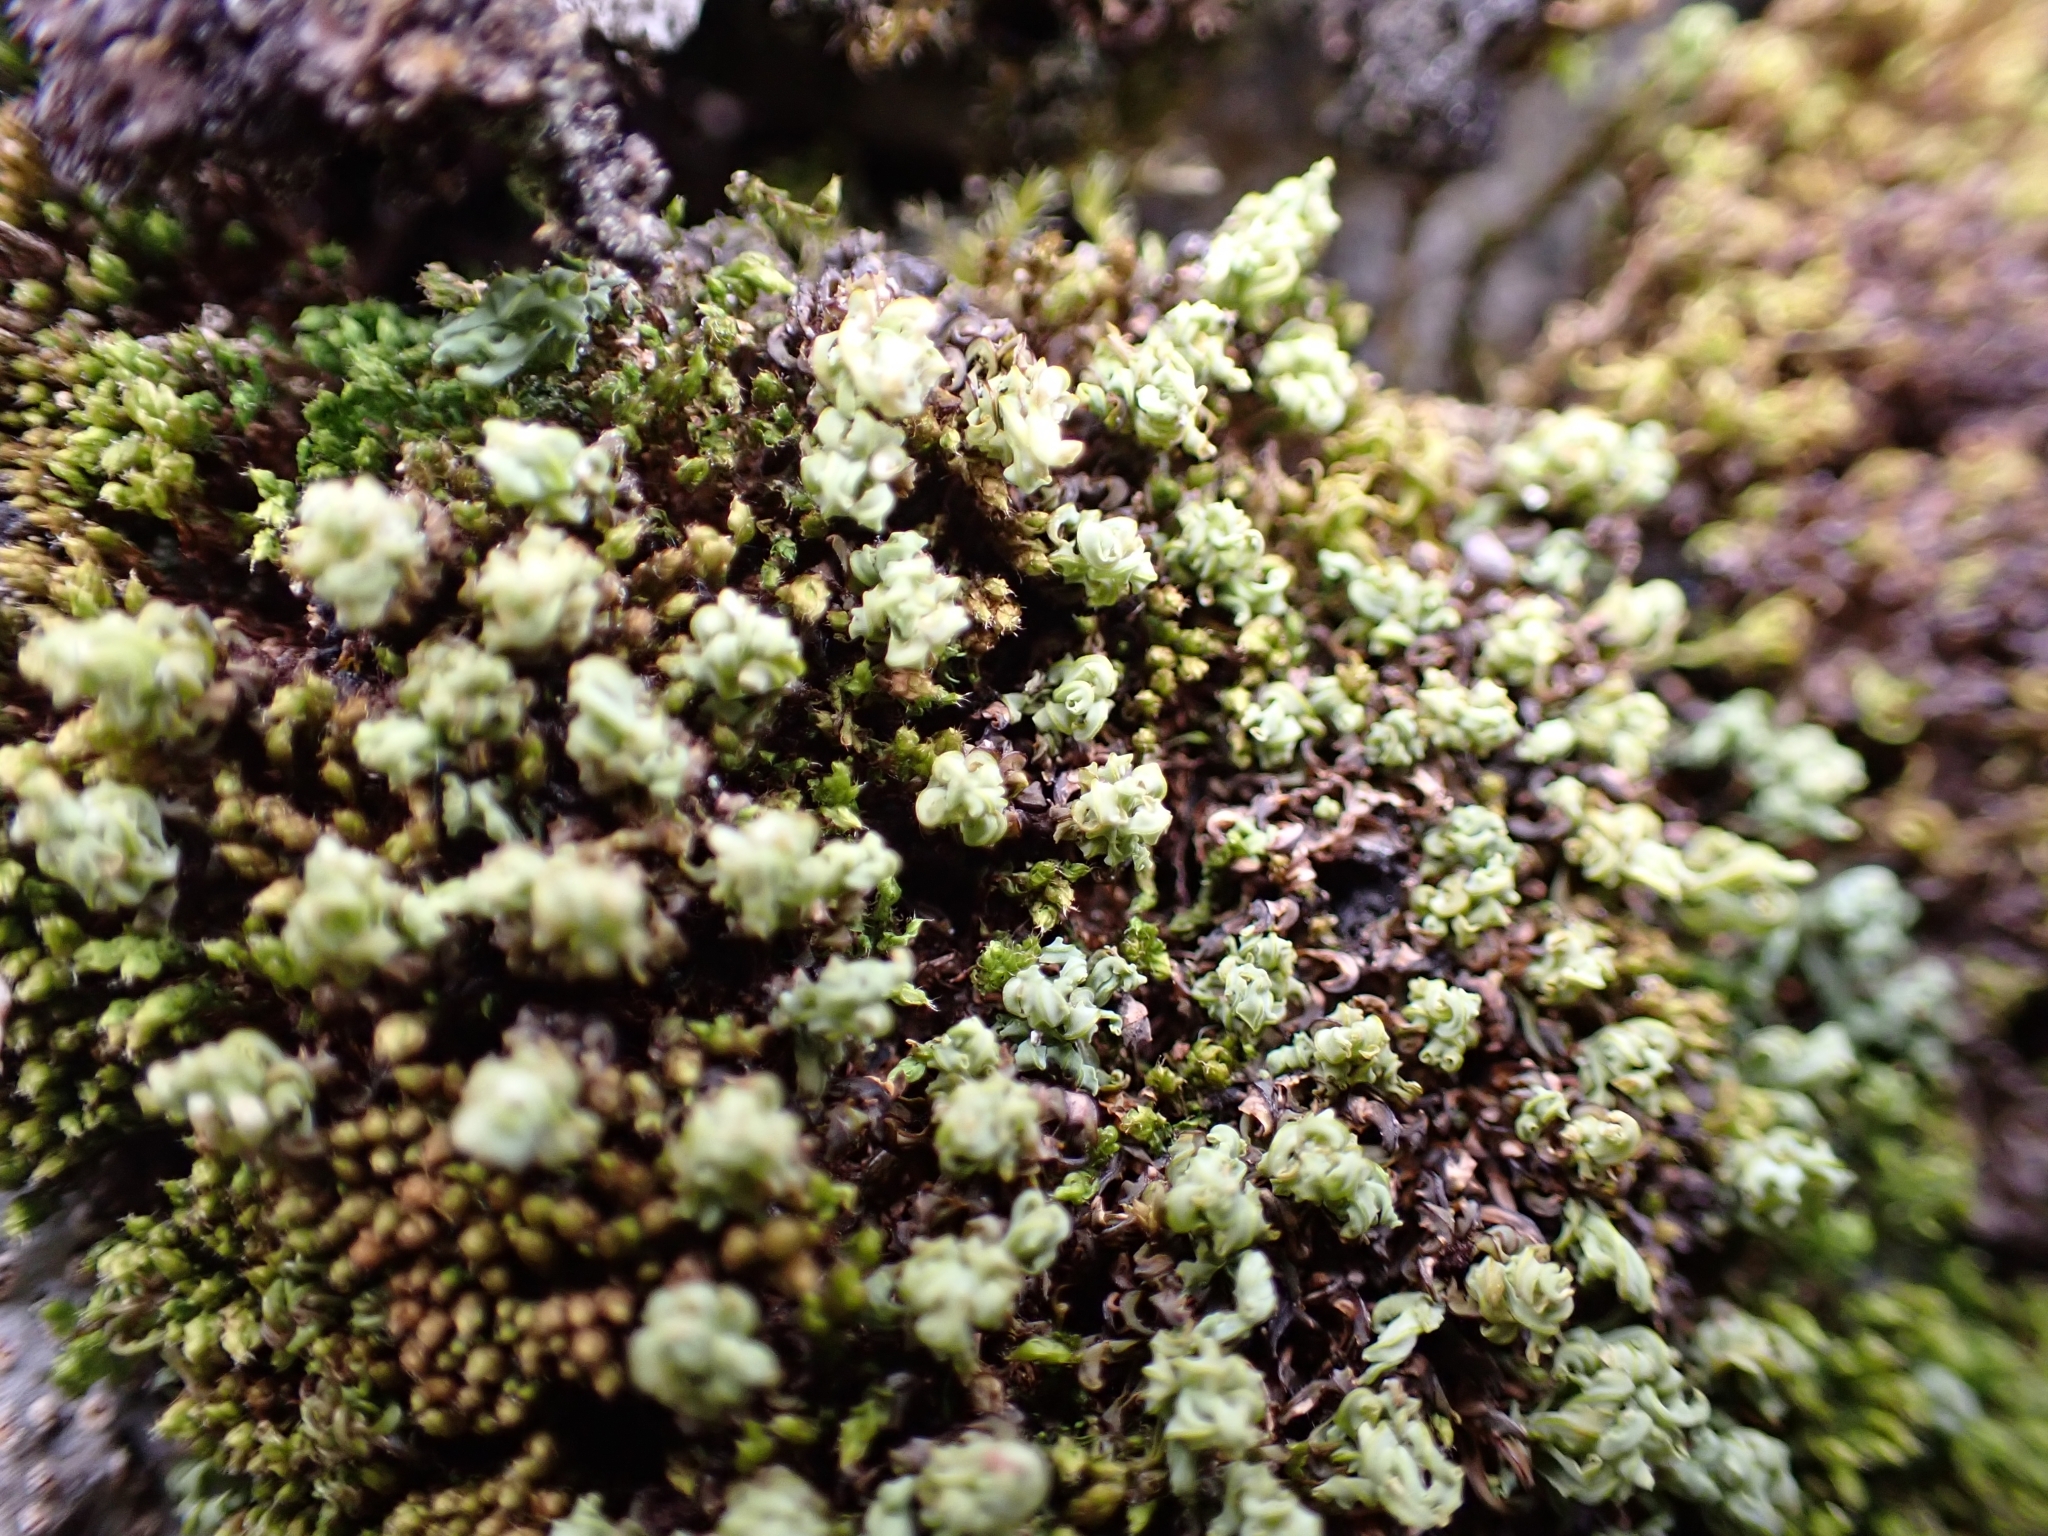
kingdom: Plantae
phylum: Bryophyta
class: Bryopsida
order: Encalyptales
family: Encalyptaceae
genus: Encalypta
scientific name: Encalypta streptocarpa
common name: Spiral extinguisher-moss
